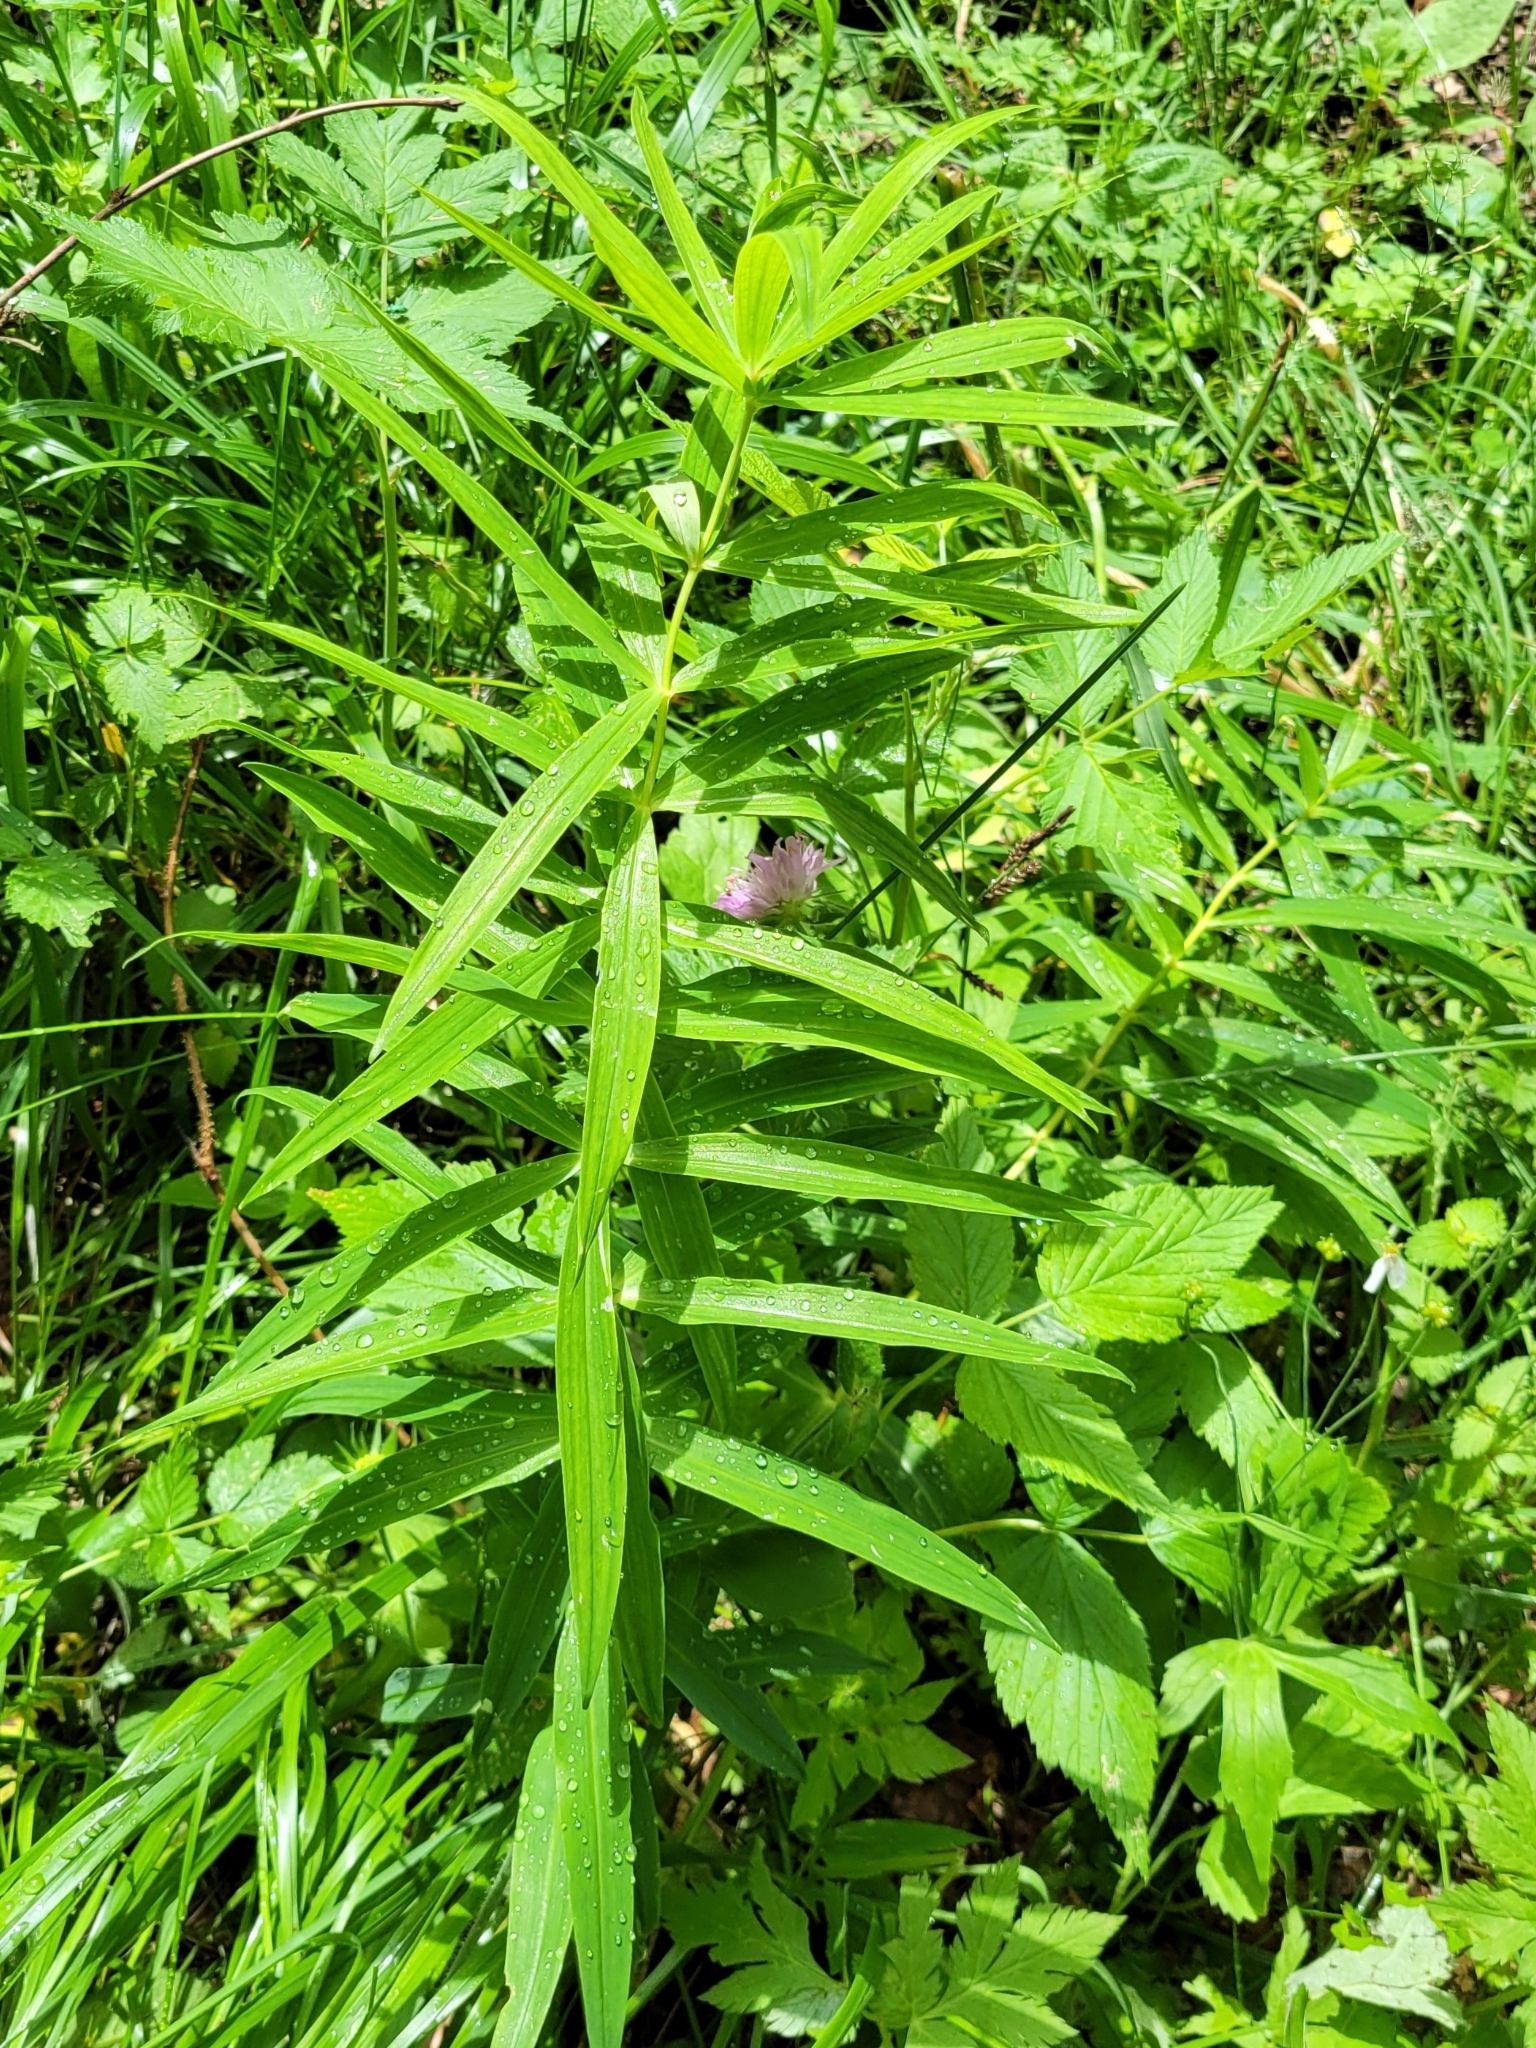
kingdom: Plantae
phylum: Tracheophyta
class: Liliopsida
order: Asparagales
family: Asparagaceae
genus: Polygonatum
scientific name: Polygonatum verticillatum
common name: Whorled solomon's-seal
